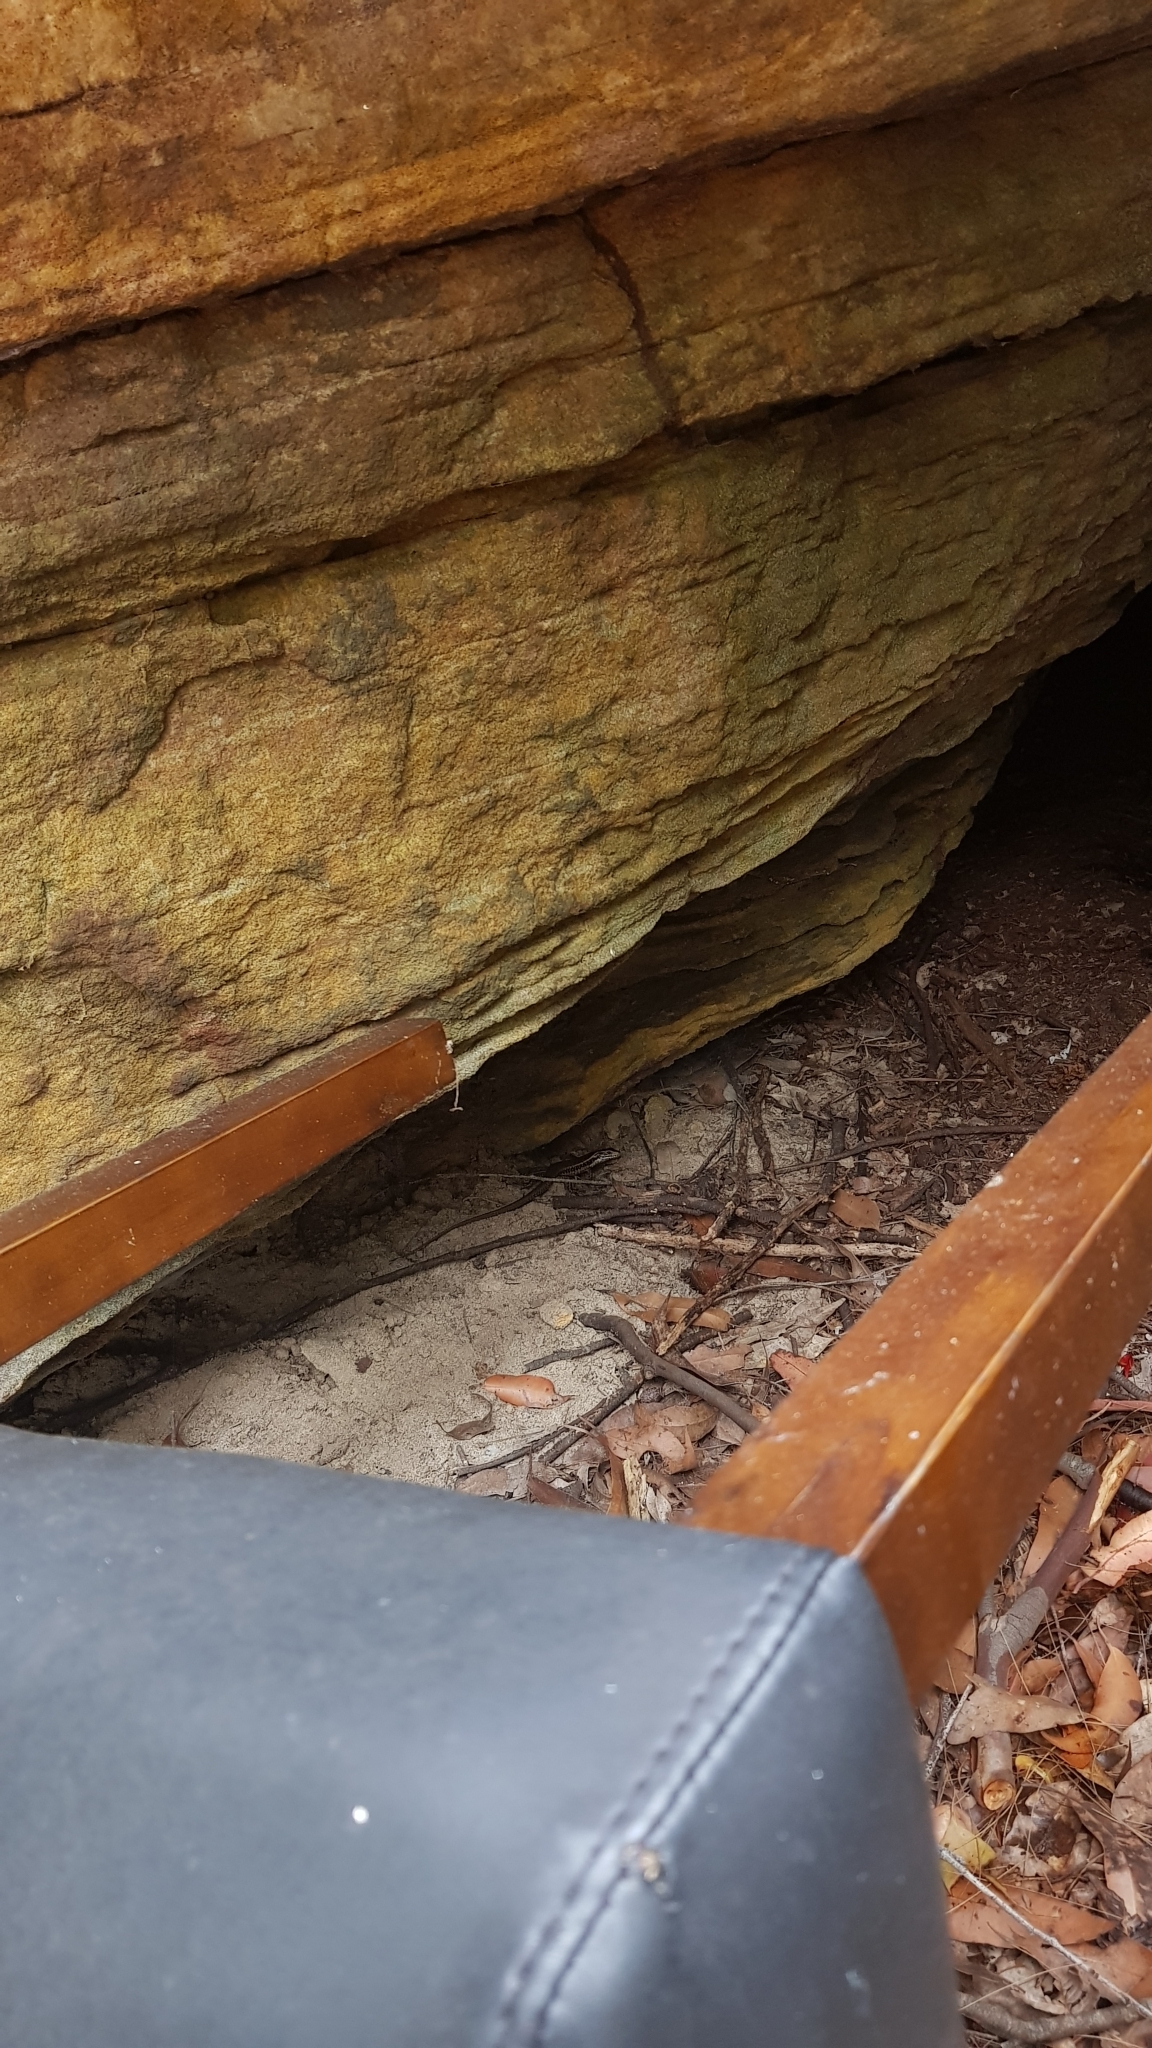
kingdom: Animalia
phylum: Chordata
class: Squamata
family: Scincidae
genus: Eulamprus
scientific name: Eulamprus quoyii
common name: Eastern water skink
